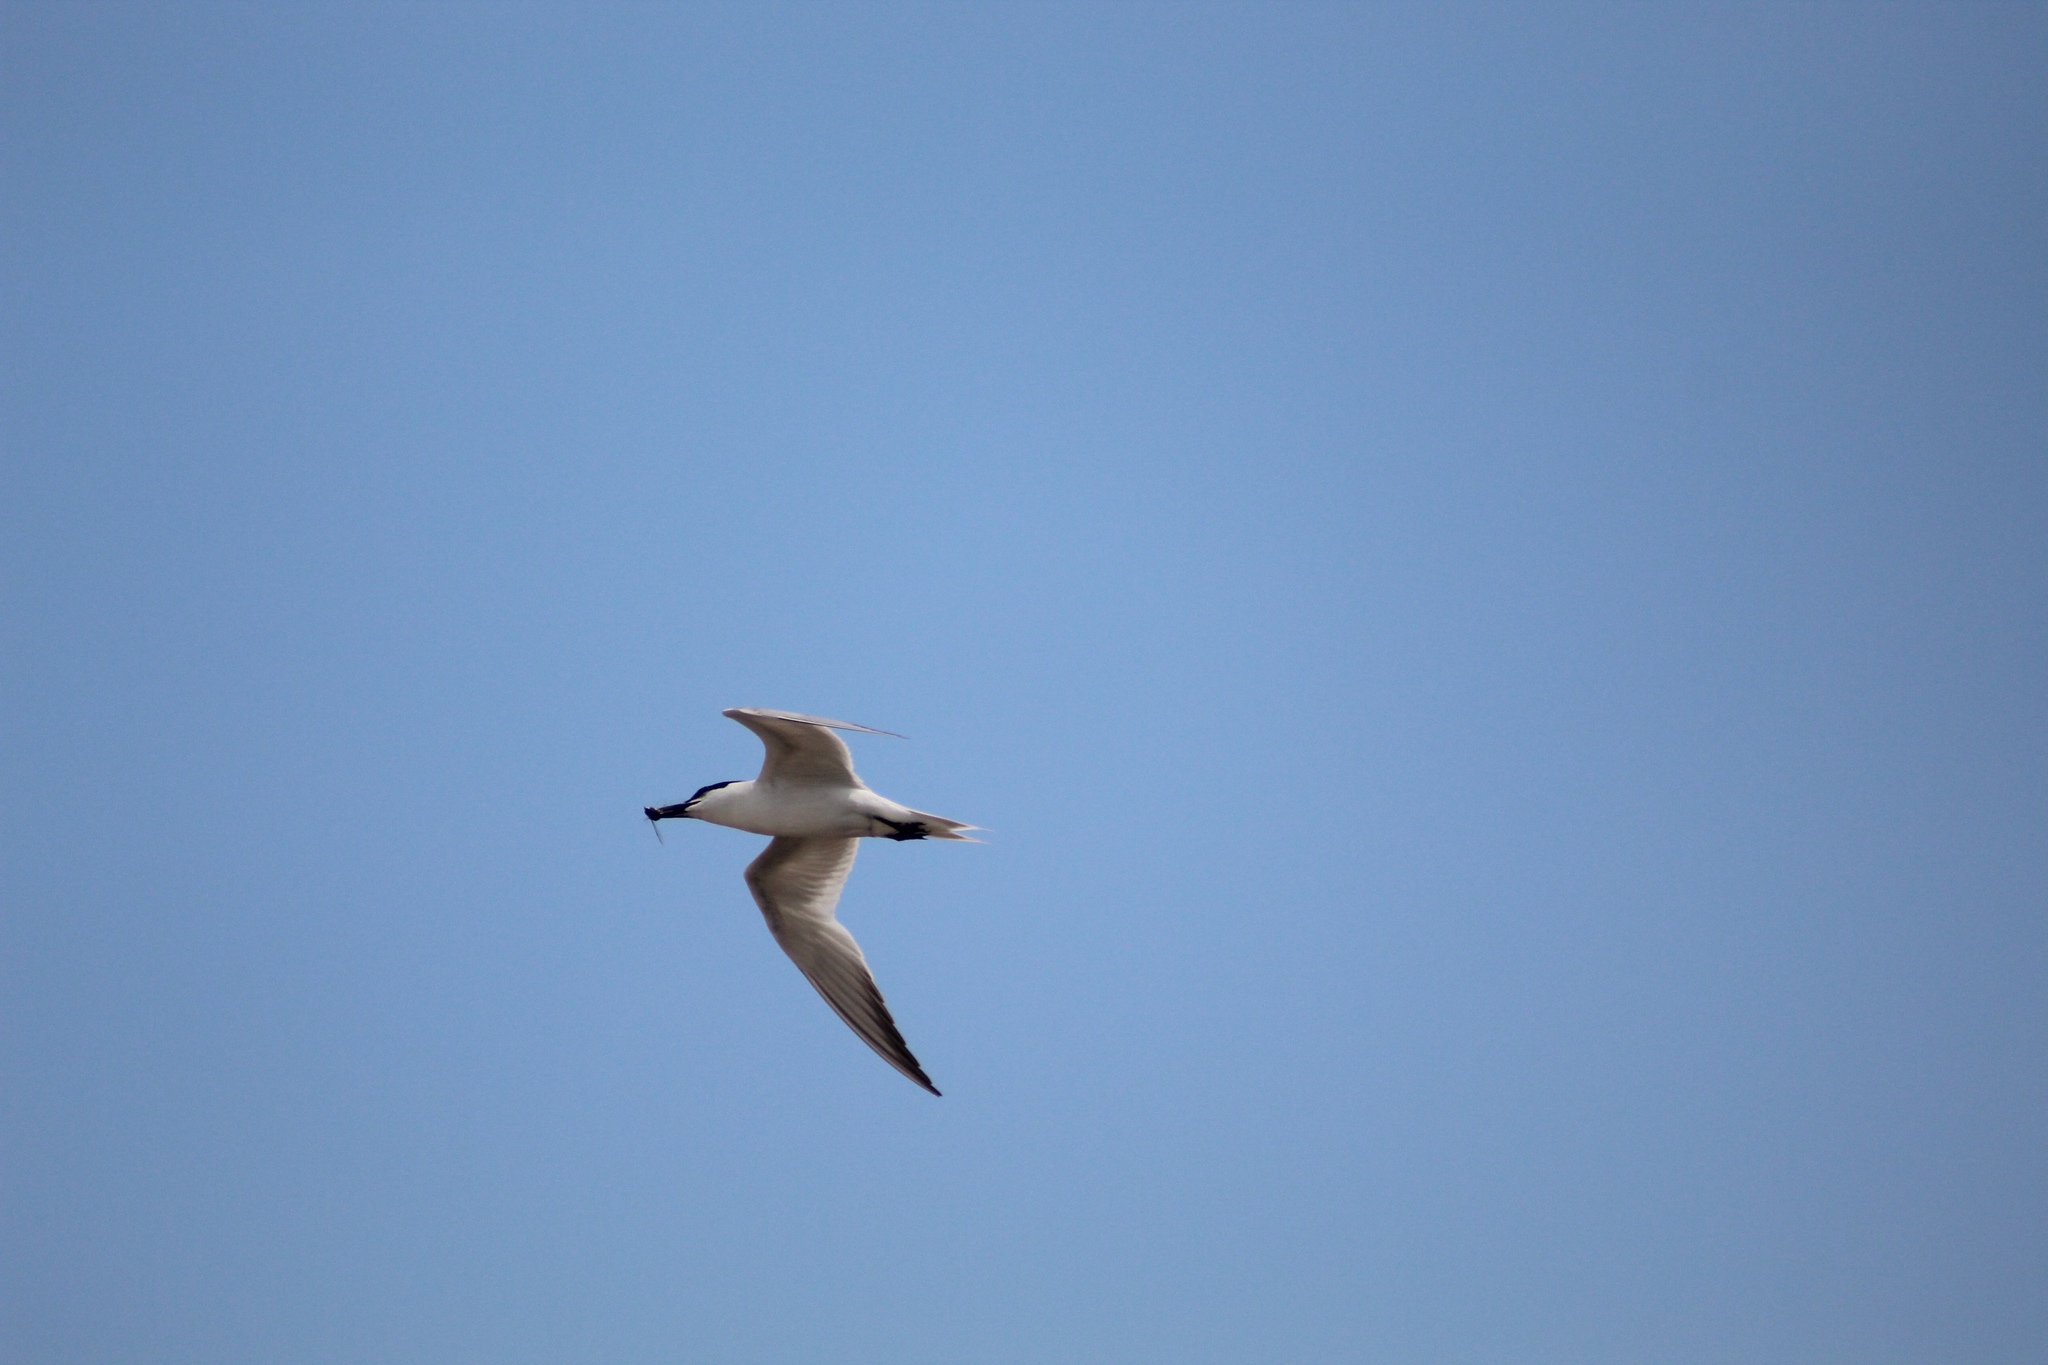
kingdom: Animalia
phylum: Chordata
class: Aves
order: Charadriiformes
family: Laridae
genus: Gelochelidon
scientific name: Gelochelidon nilotica
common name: Gull-billed tern
